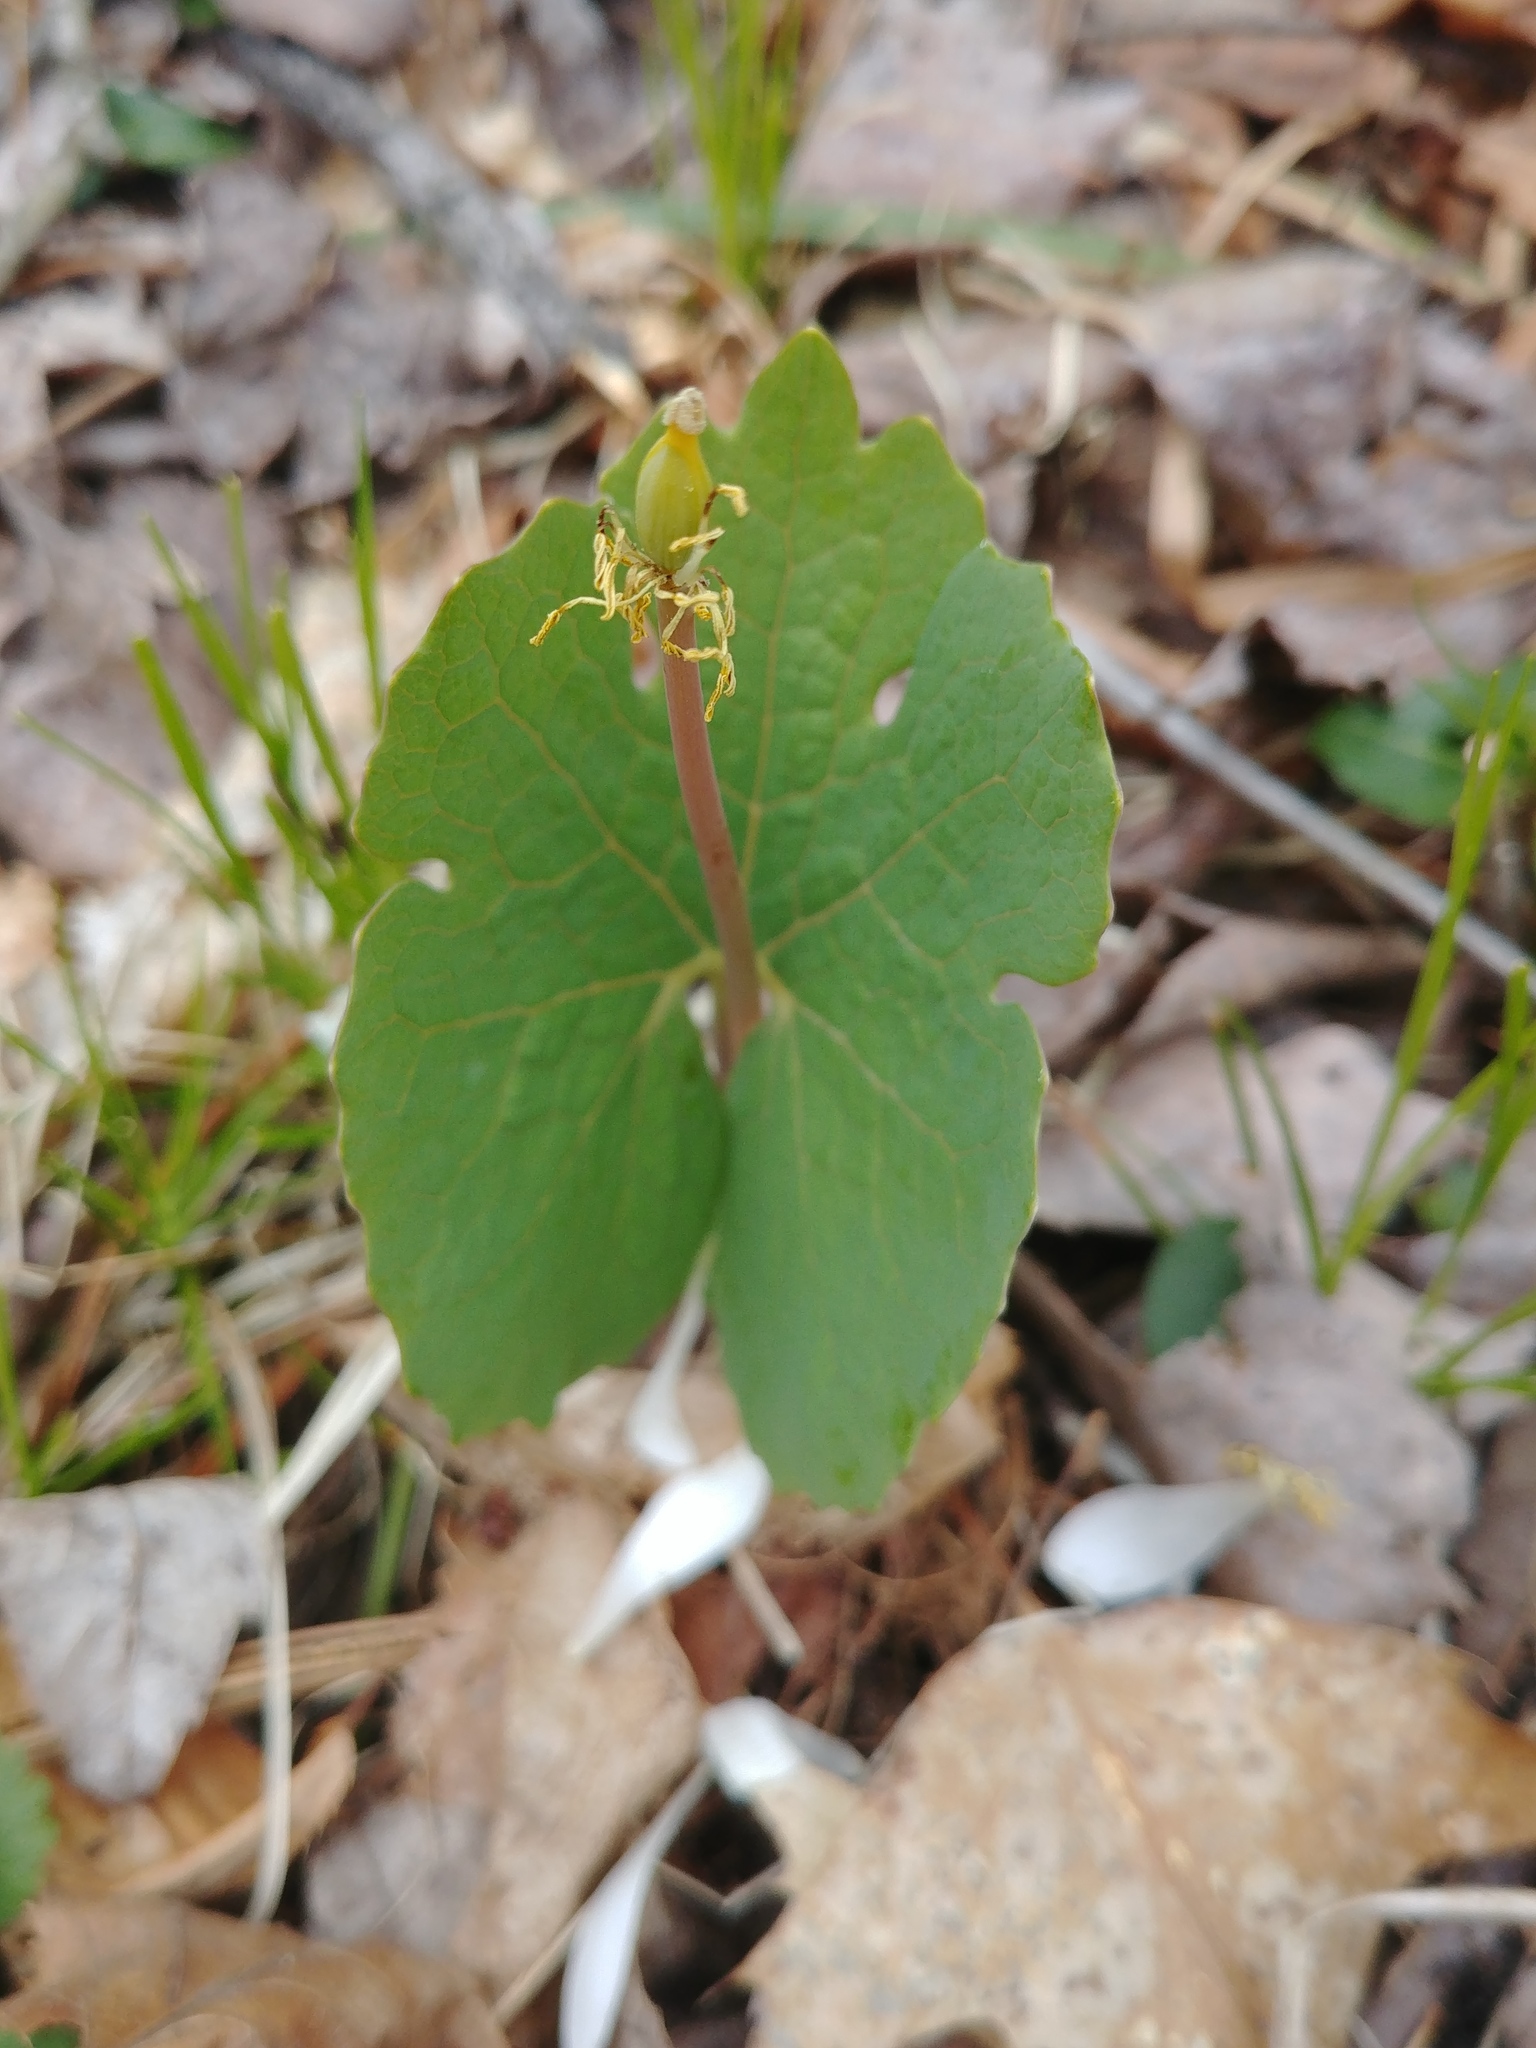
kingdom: Plantae
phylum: Tracheophyta
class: Magnoliopsida
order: Ranunculales
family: Papaveraceae
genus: Sanguinaria
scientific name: Sanguinaria canadensis
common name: Bloodroot
